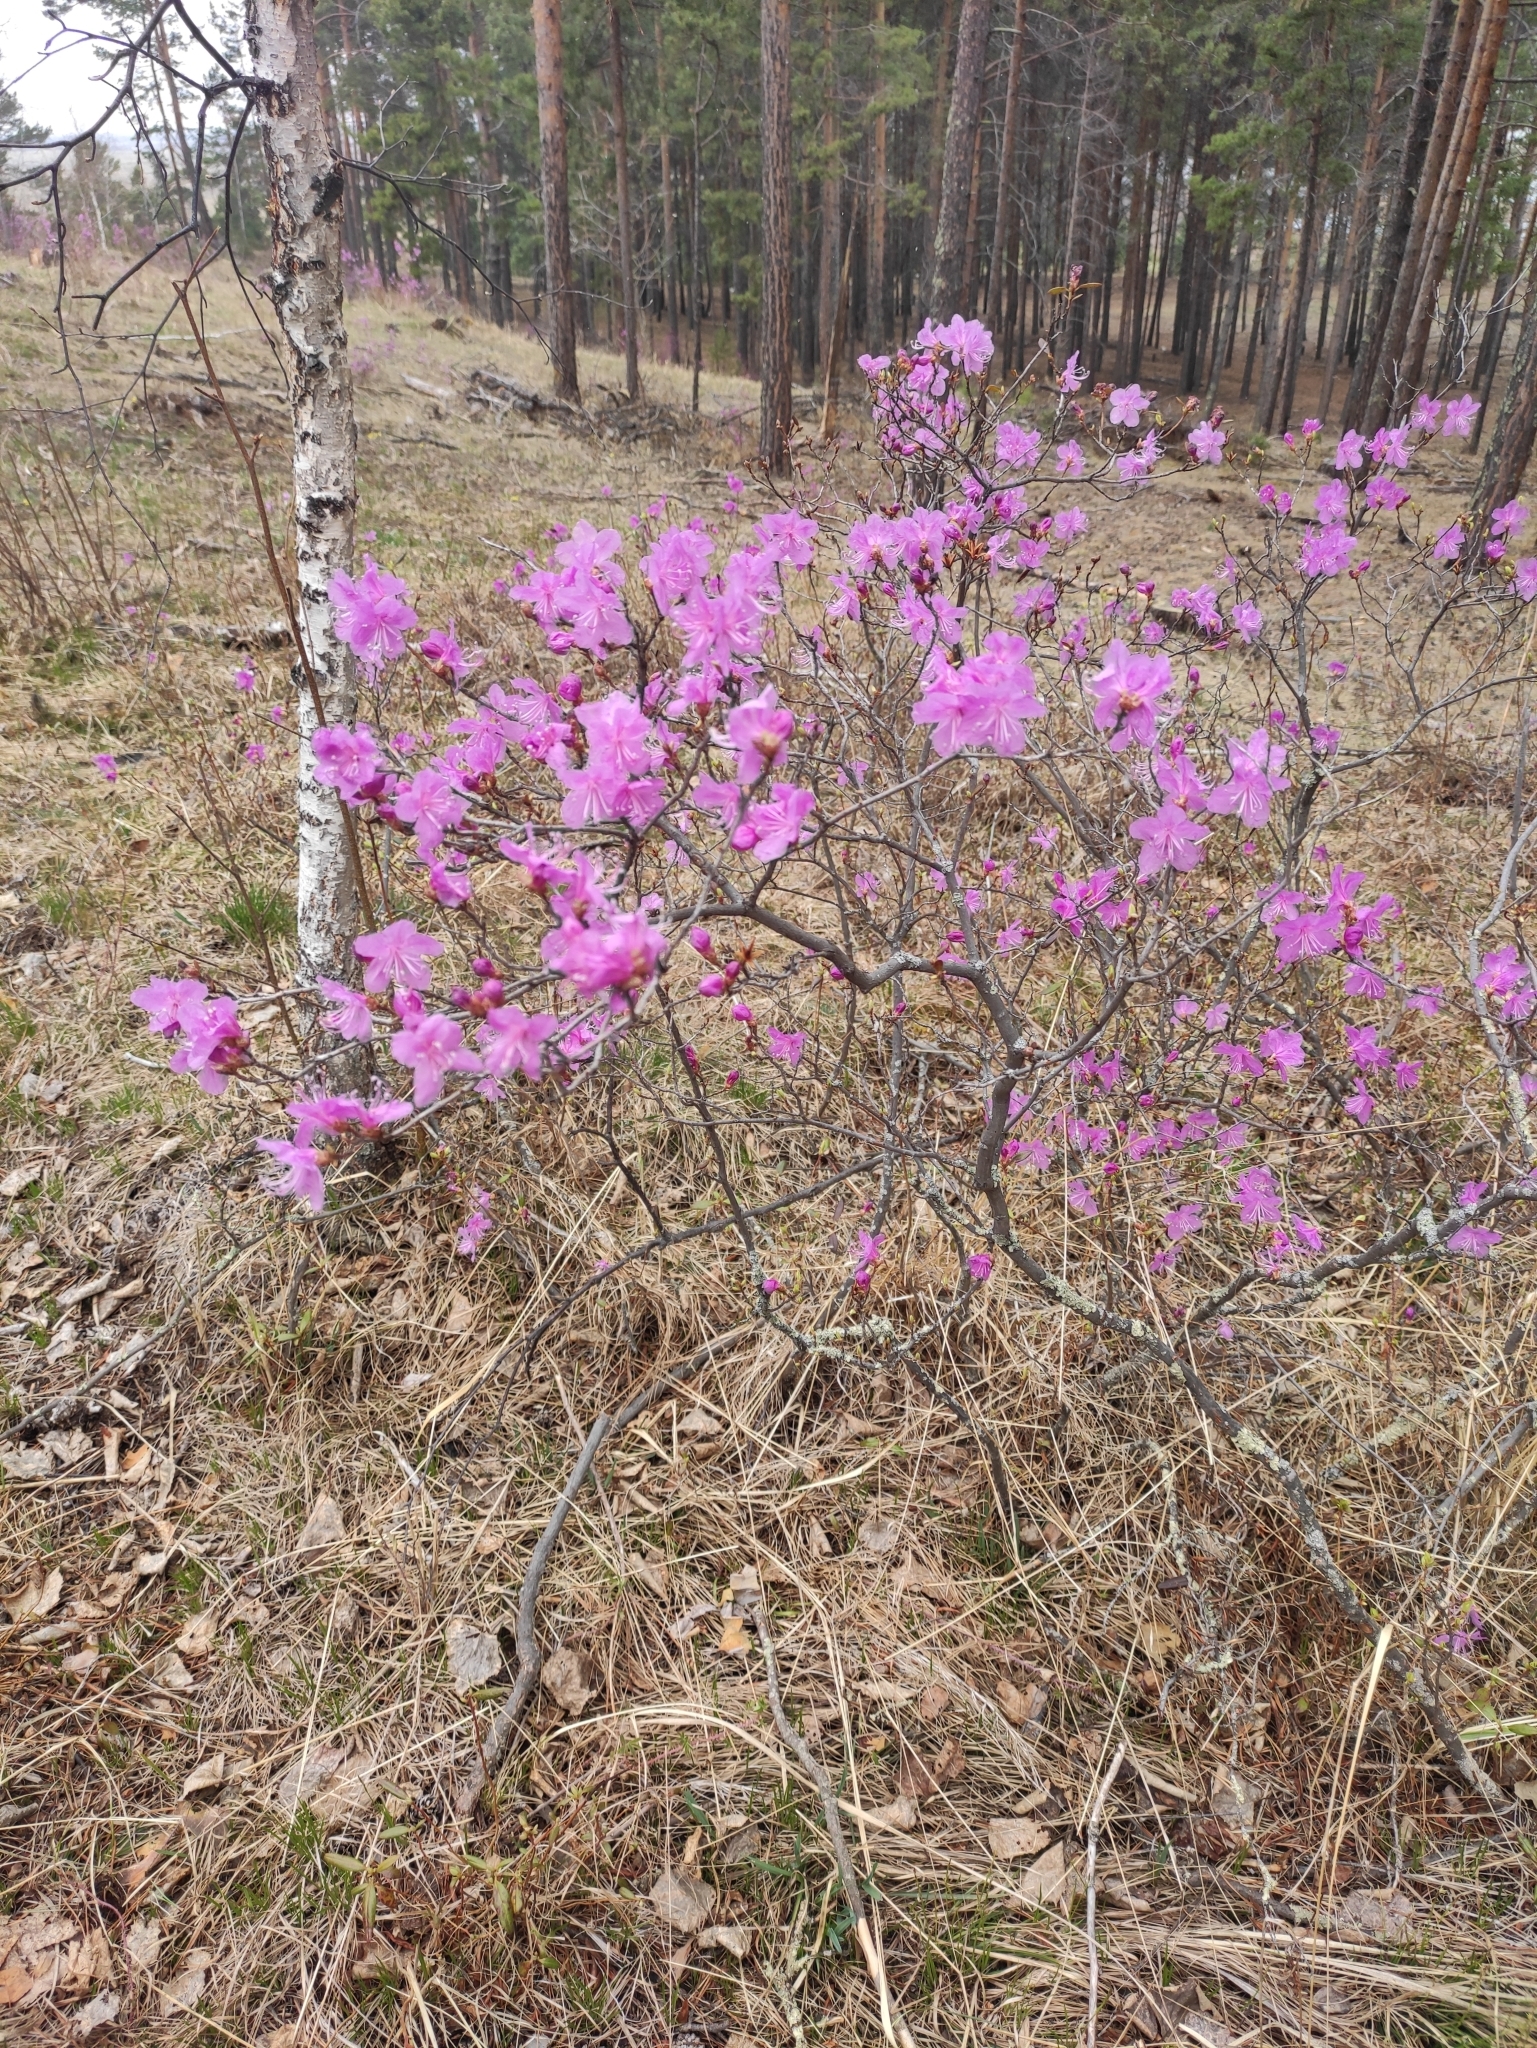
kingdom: Plantae
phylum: Tracheophyta
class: Magnoliopsida
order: Ericales
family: Ericaceae
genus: Rhododendron
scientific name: Rhododendron dauricum
